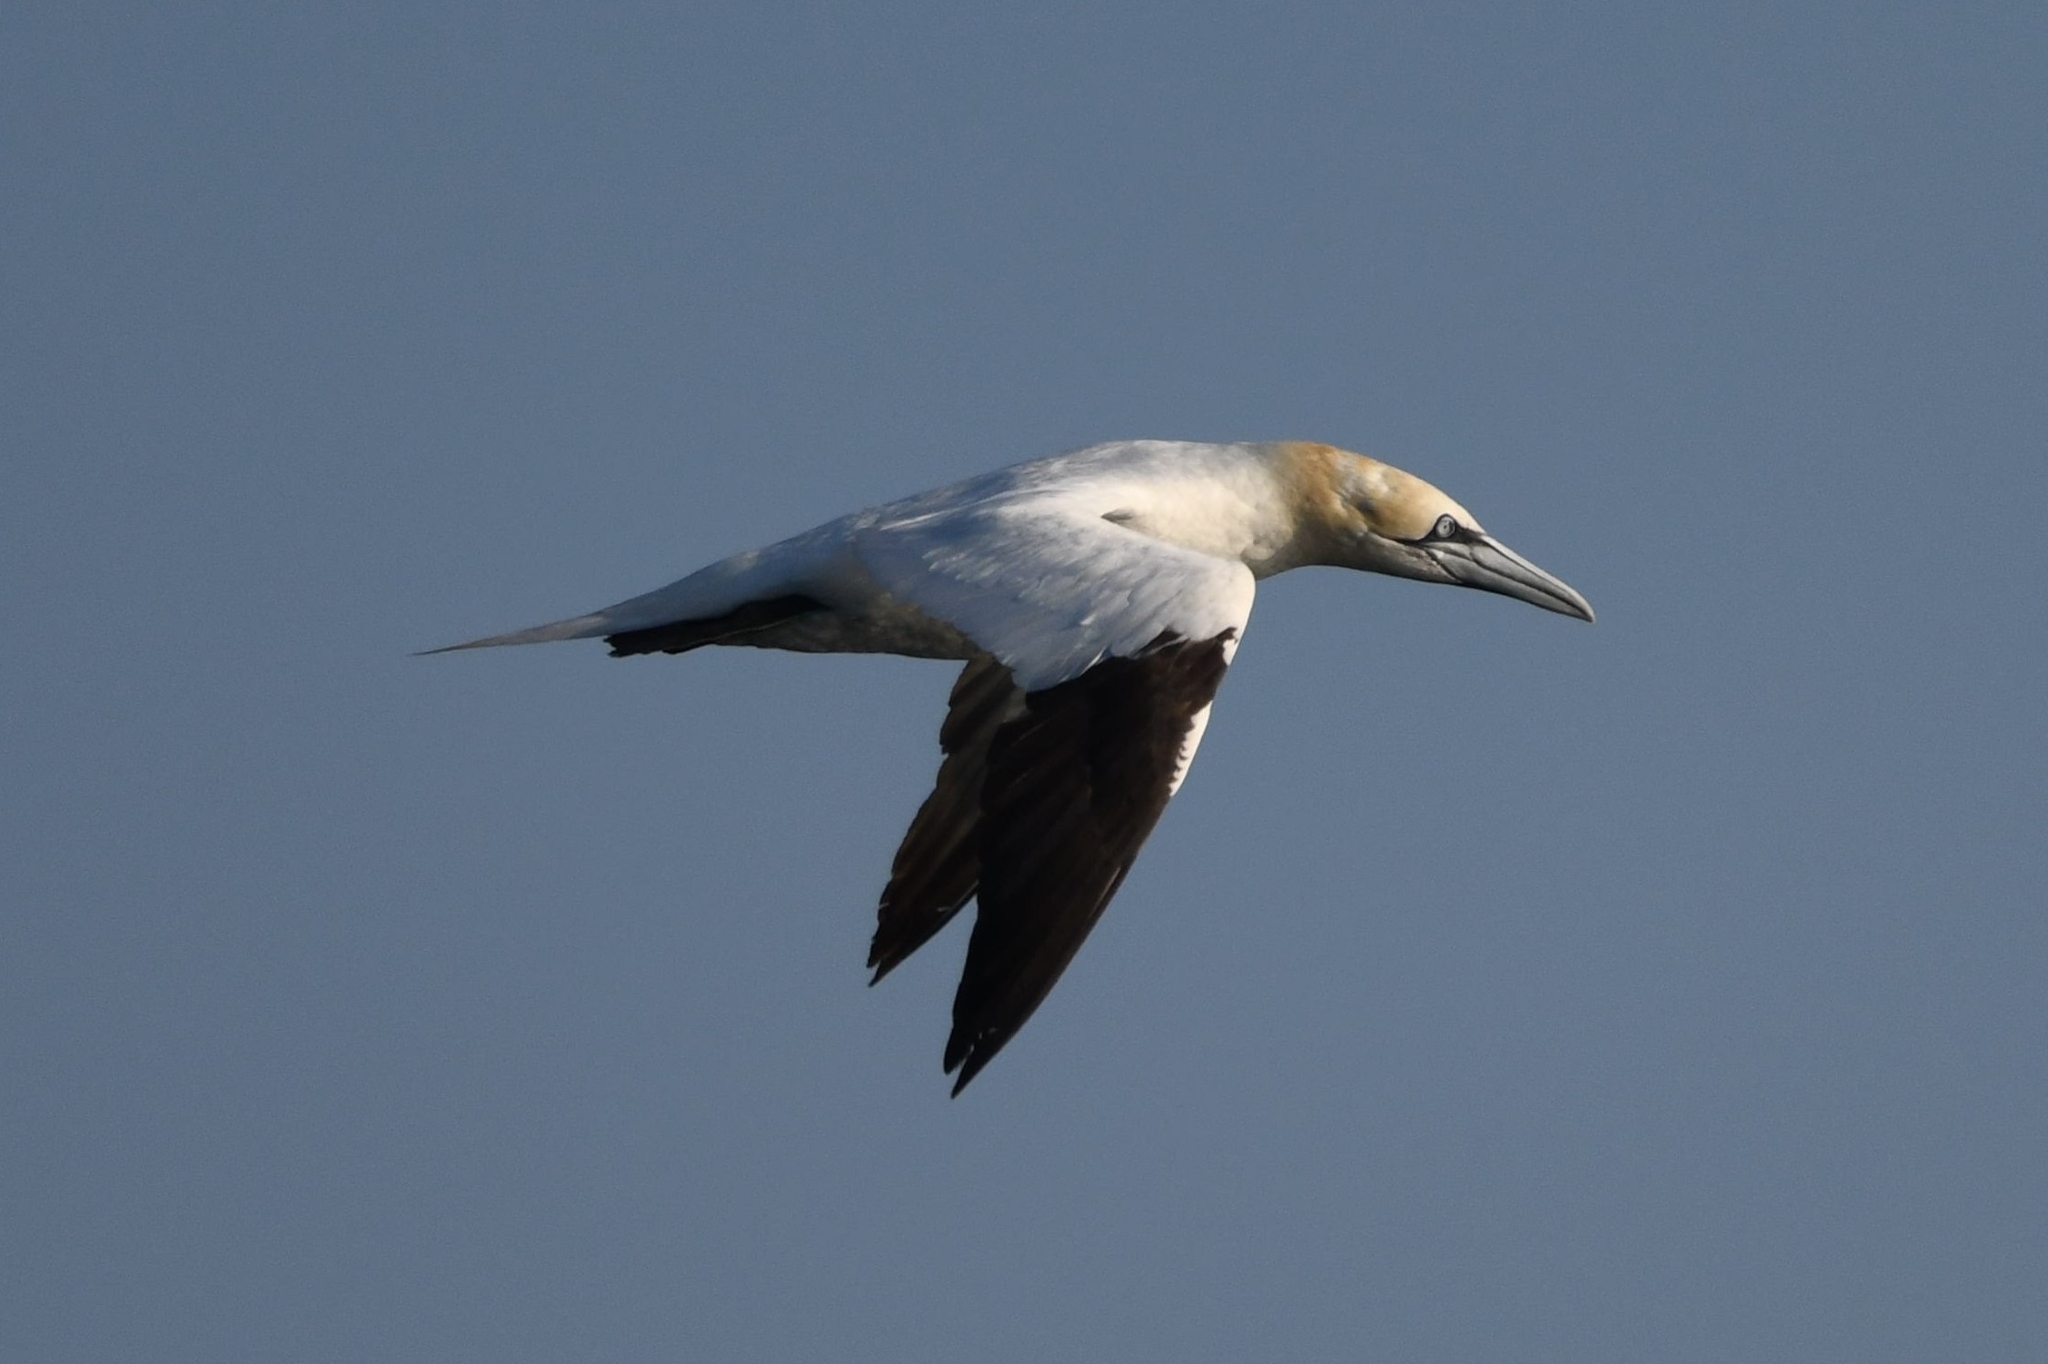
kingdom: Animalia
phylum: Chordata
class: Aves
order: Suliformes
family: Sulidae
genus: Morus
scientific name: Morus bassanus
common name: Northern gannet
